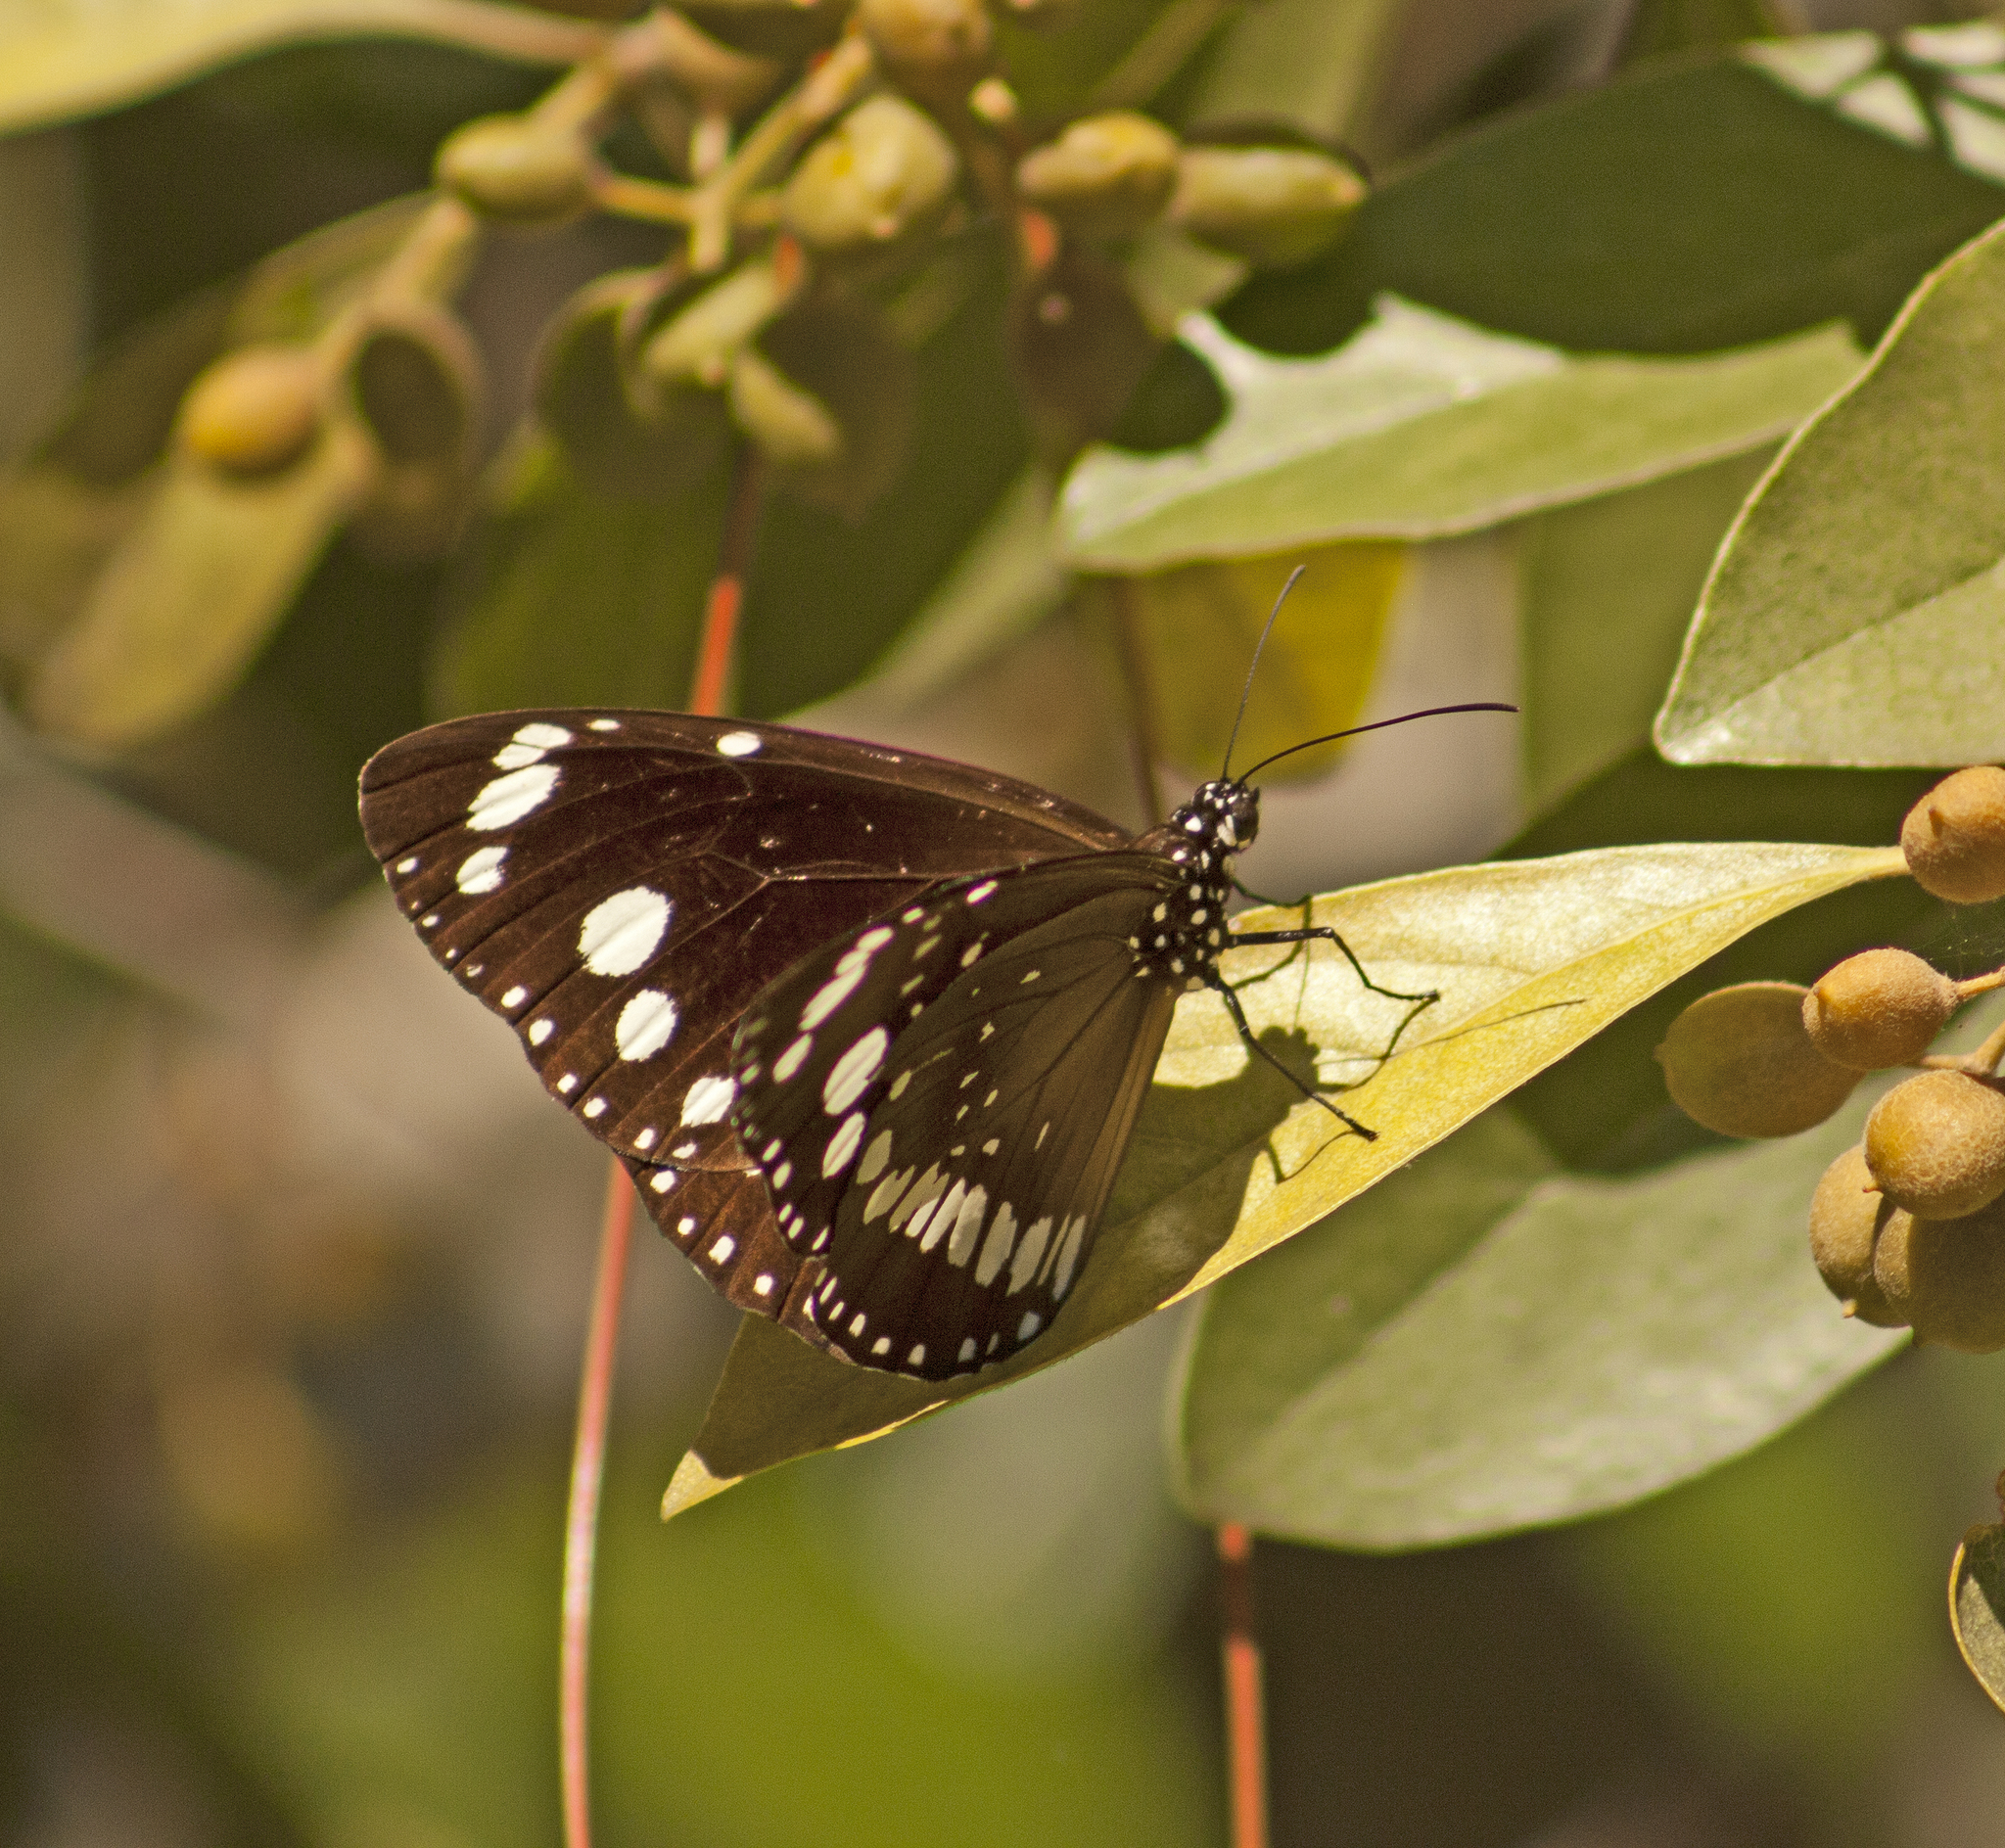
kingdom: Animalia
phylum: Arthropoda
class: Insecta
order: Lepidoptera
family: Nymphalidae
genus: Euploea
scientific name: Euploea core
